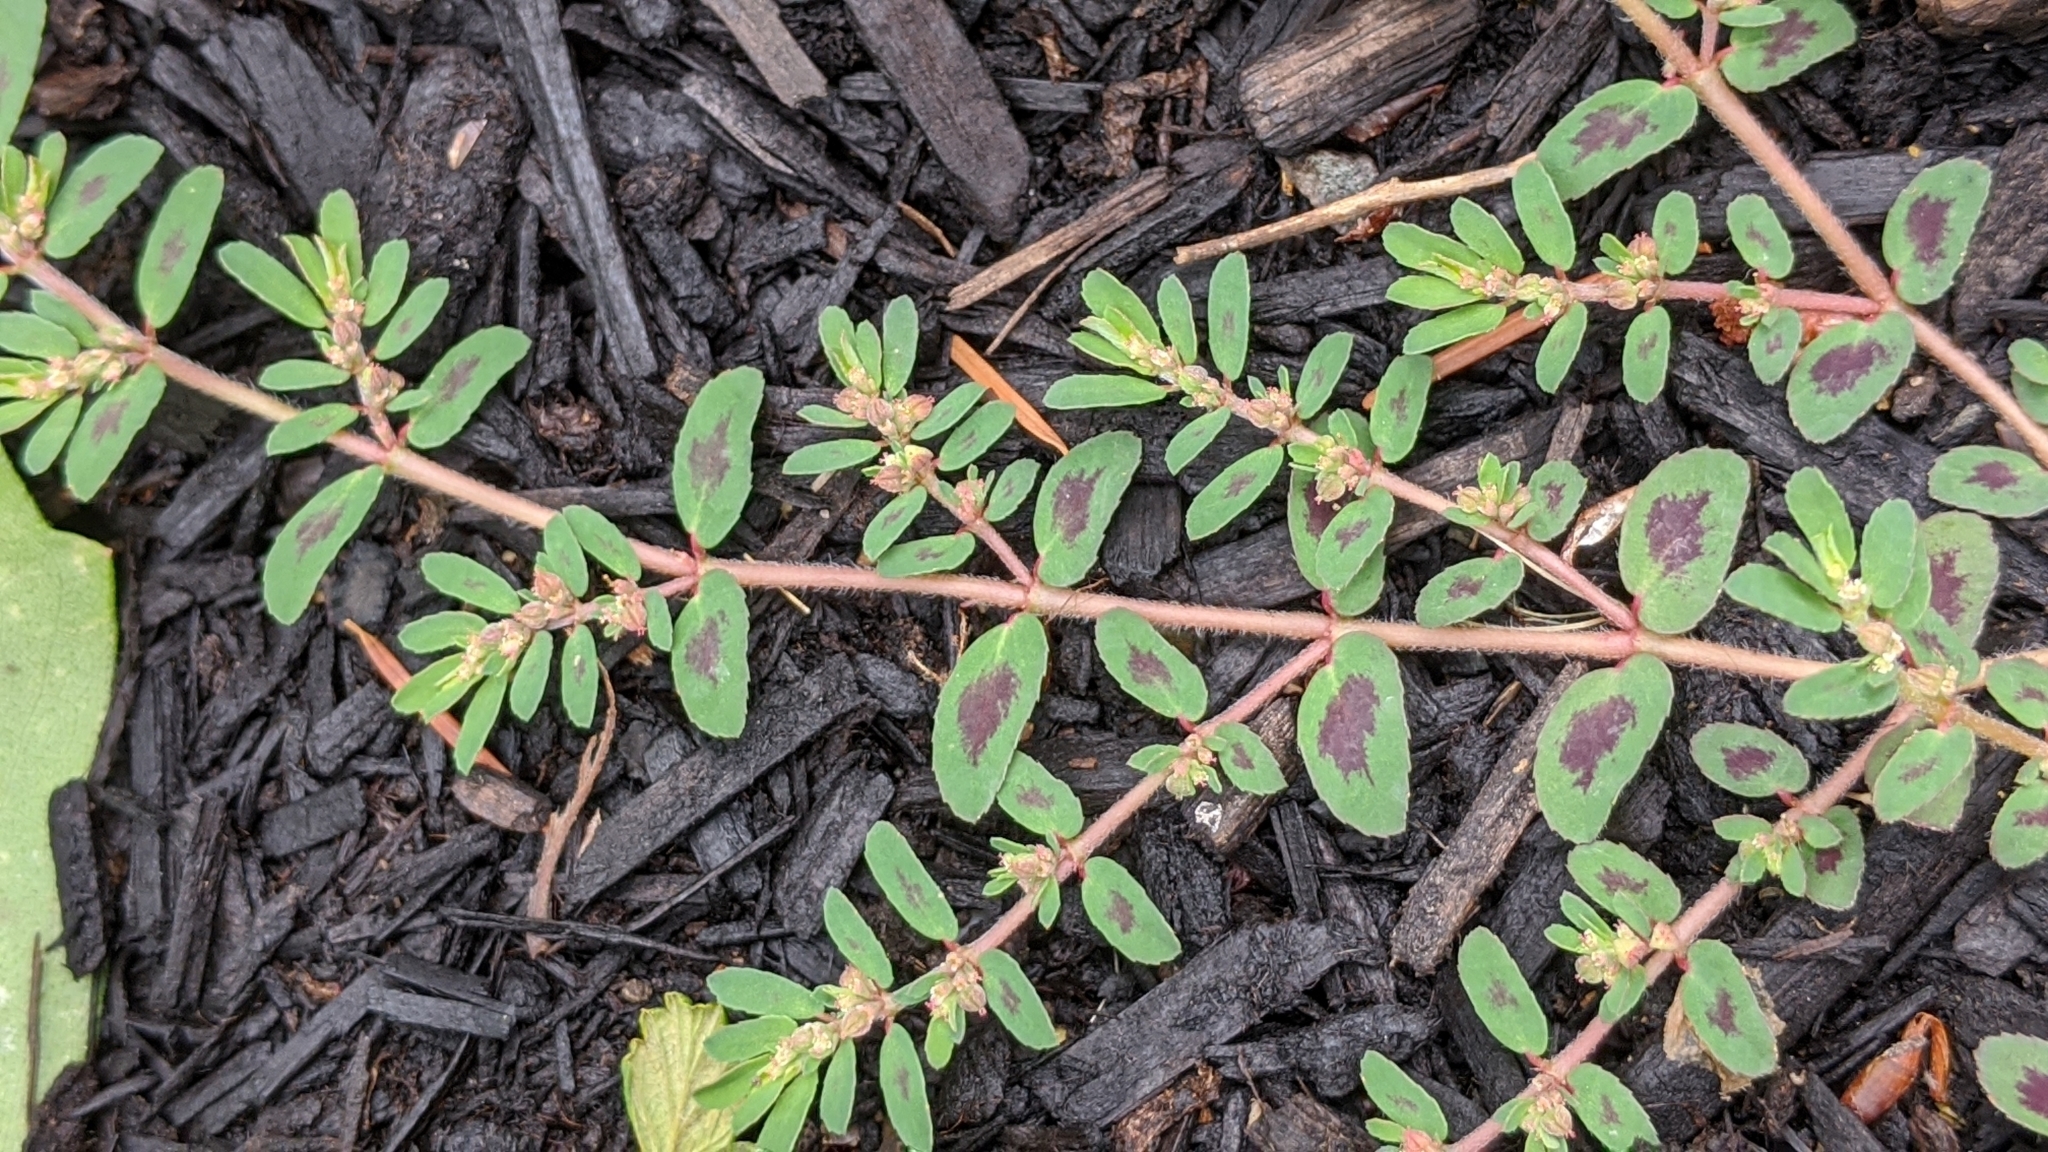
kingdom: Plantae
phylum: Tracheophyta
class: Magnoliopsida
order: Malpighiales
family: Euphorbiaceae
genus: Euphorbia
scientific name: Euphorbia maculata
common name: Spotted spurge
